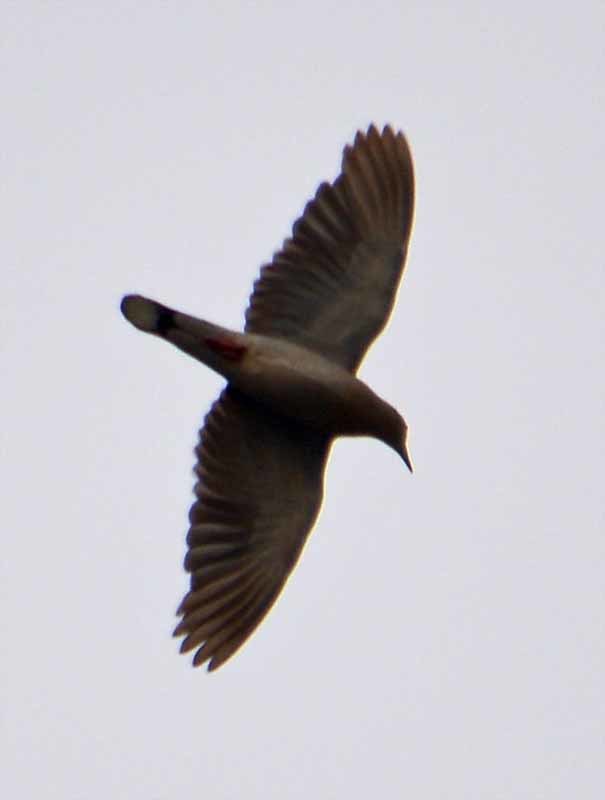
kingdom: Animalia
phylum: Chordata
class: Aves
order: Columbiformes
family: Columbidae
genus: Streptopelia
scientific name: Streptopelia decaocto
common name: Eurasian collared dove
